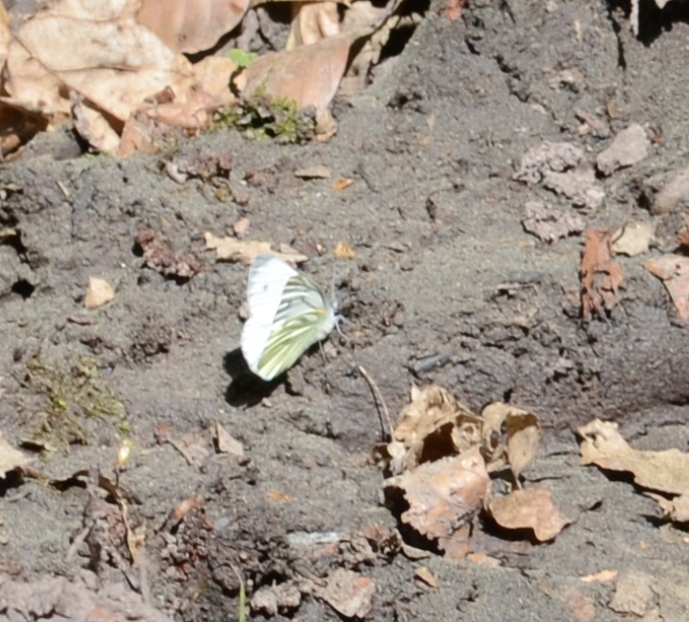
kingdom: Animalia
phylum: Arthropoda
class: Insecta
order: Lepidoptera
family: Pieridae
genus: Pieris
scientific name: Pieris napi
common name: Green-veined white
